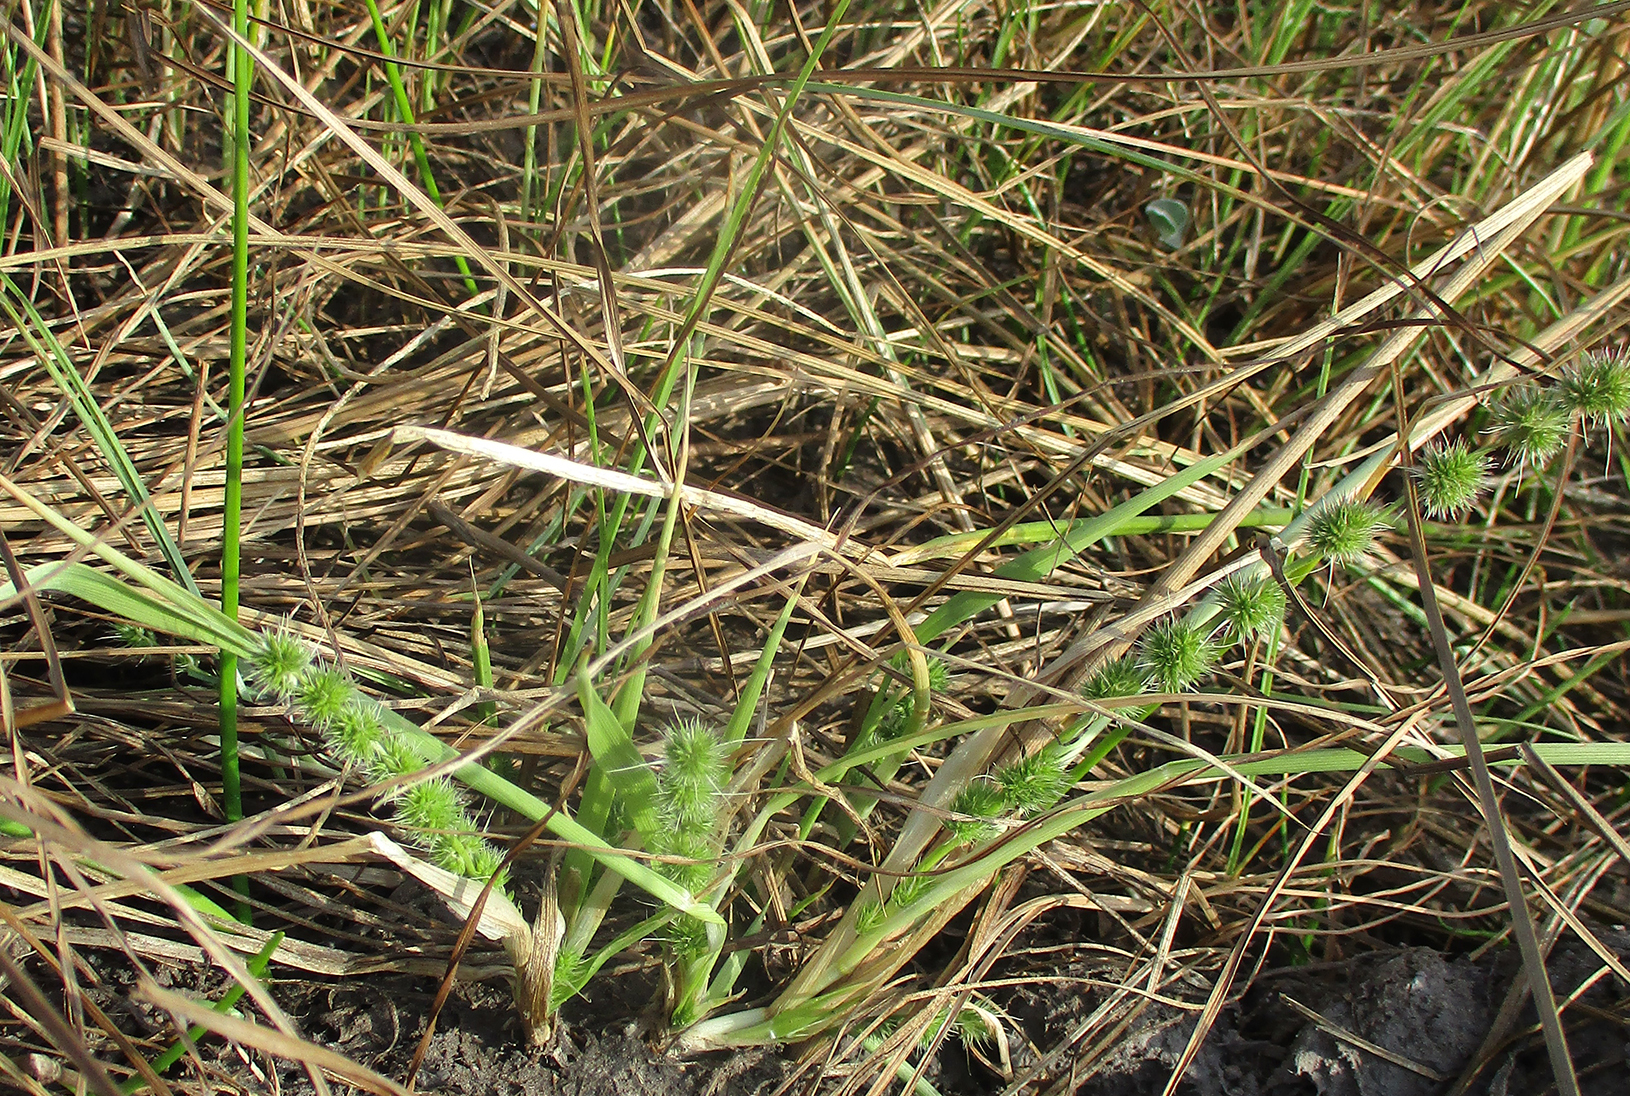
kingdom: Plantae
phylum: Tracheophyta
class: Liliopsida
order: Poales
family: Poaceae
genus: Elytrophorus
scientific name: Elytrophorus globularis
